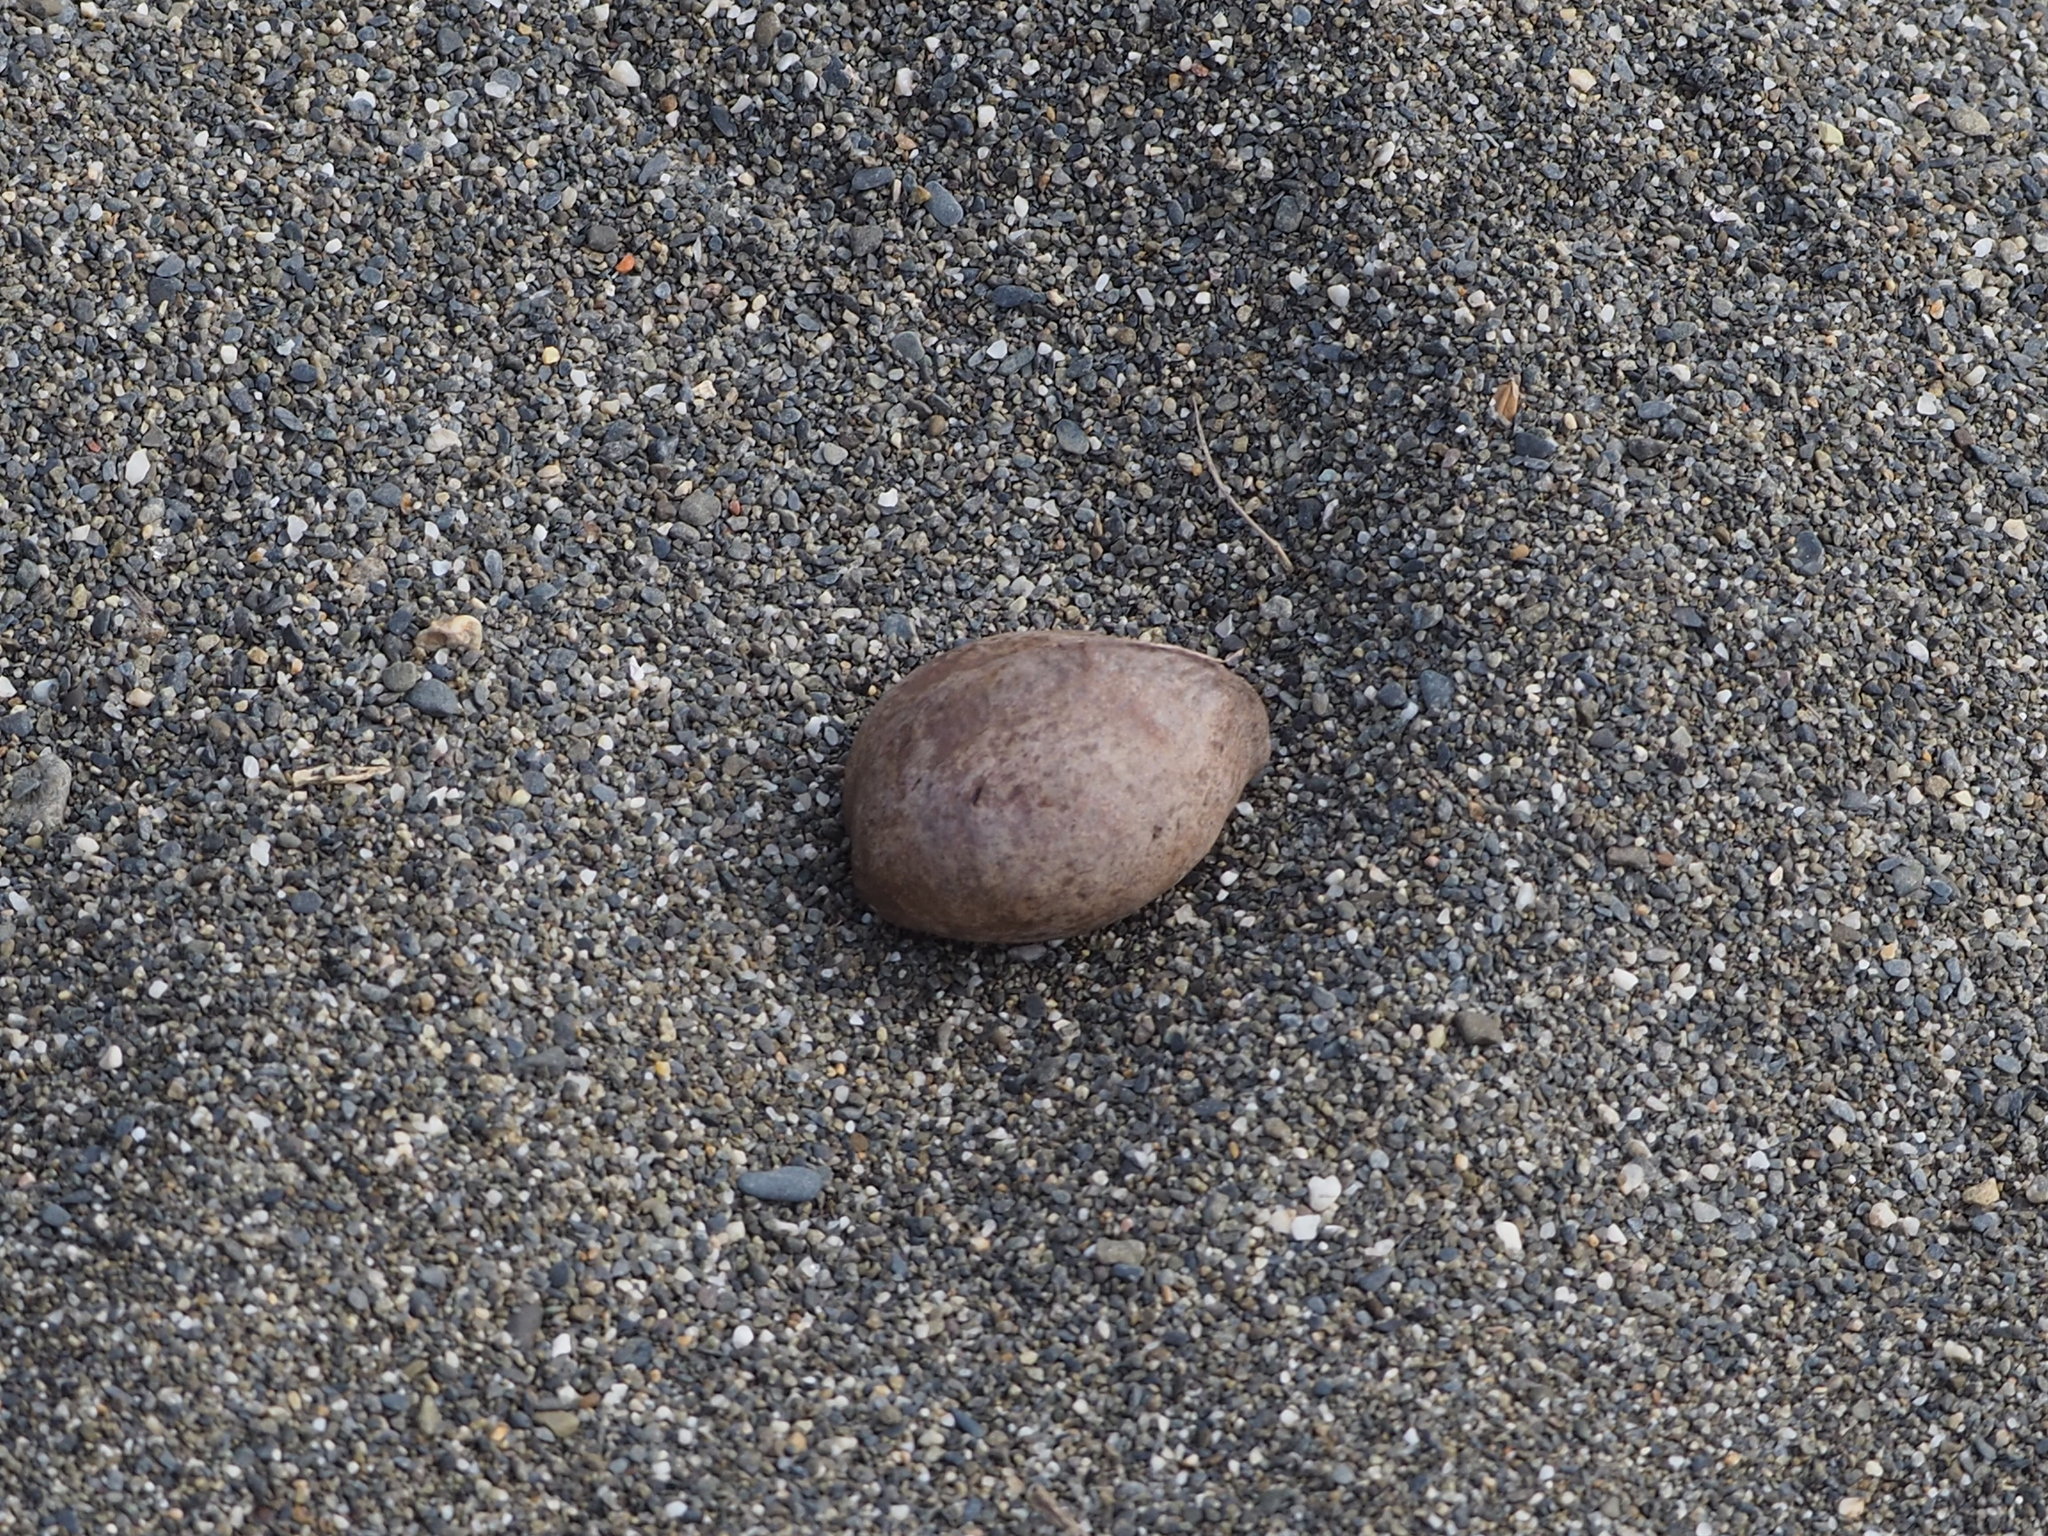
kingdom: Plantae
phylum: Tracheophyta
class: Magnoliopsida
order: Malvales
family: Malvaceae
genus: Heritiera
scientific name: Heritiera littoralis
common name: Looking-glass mangrove
